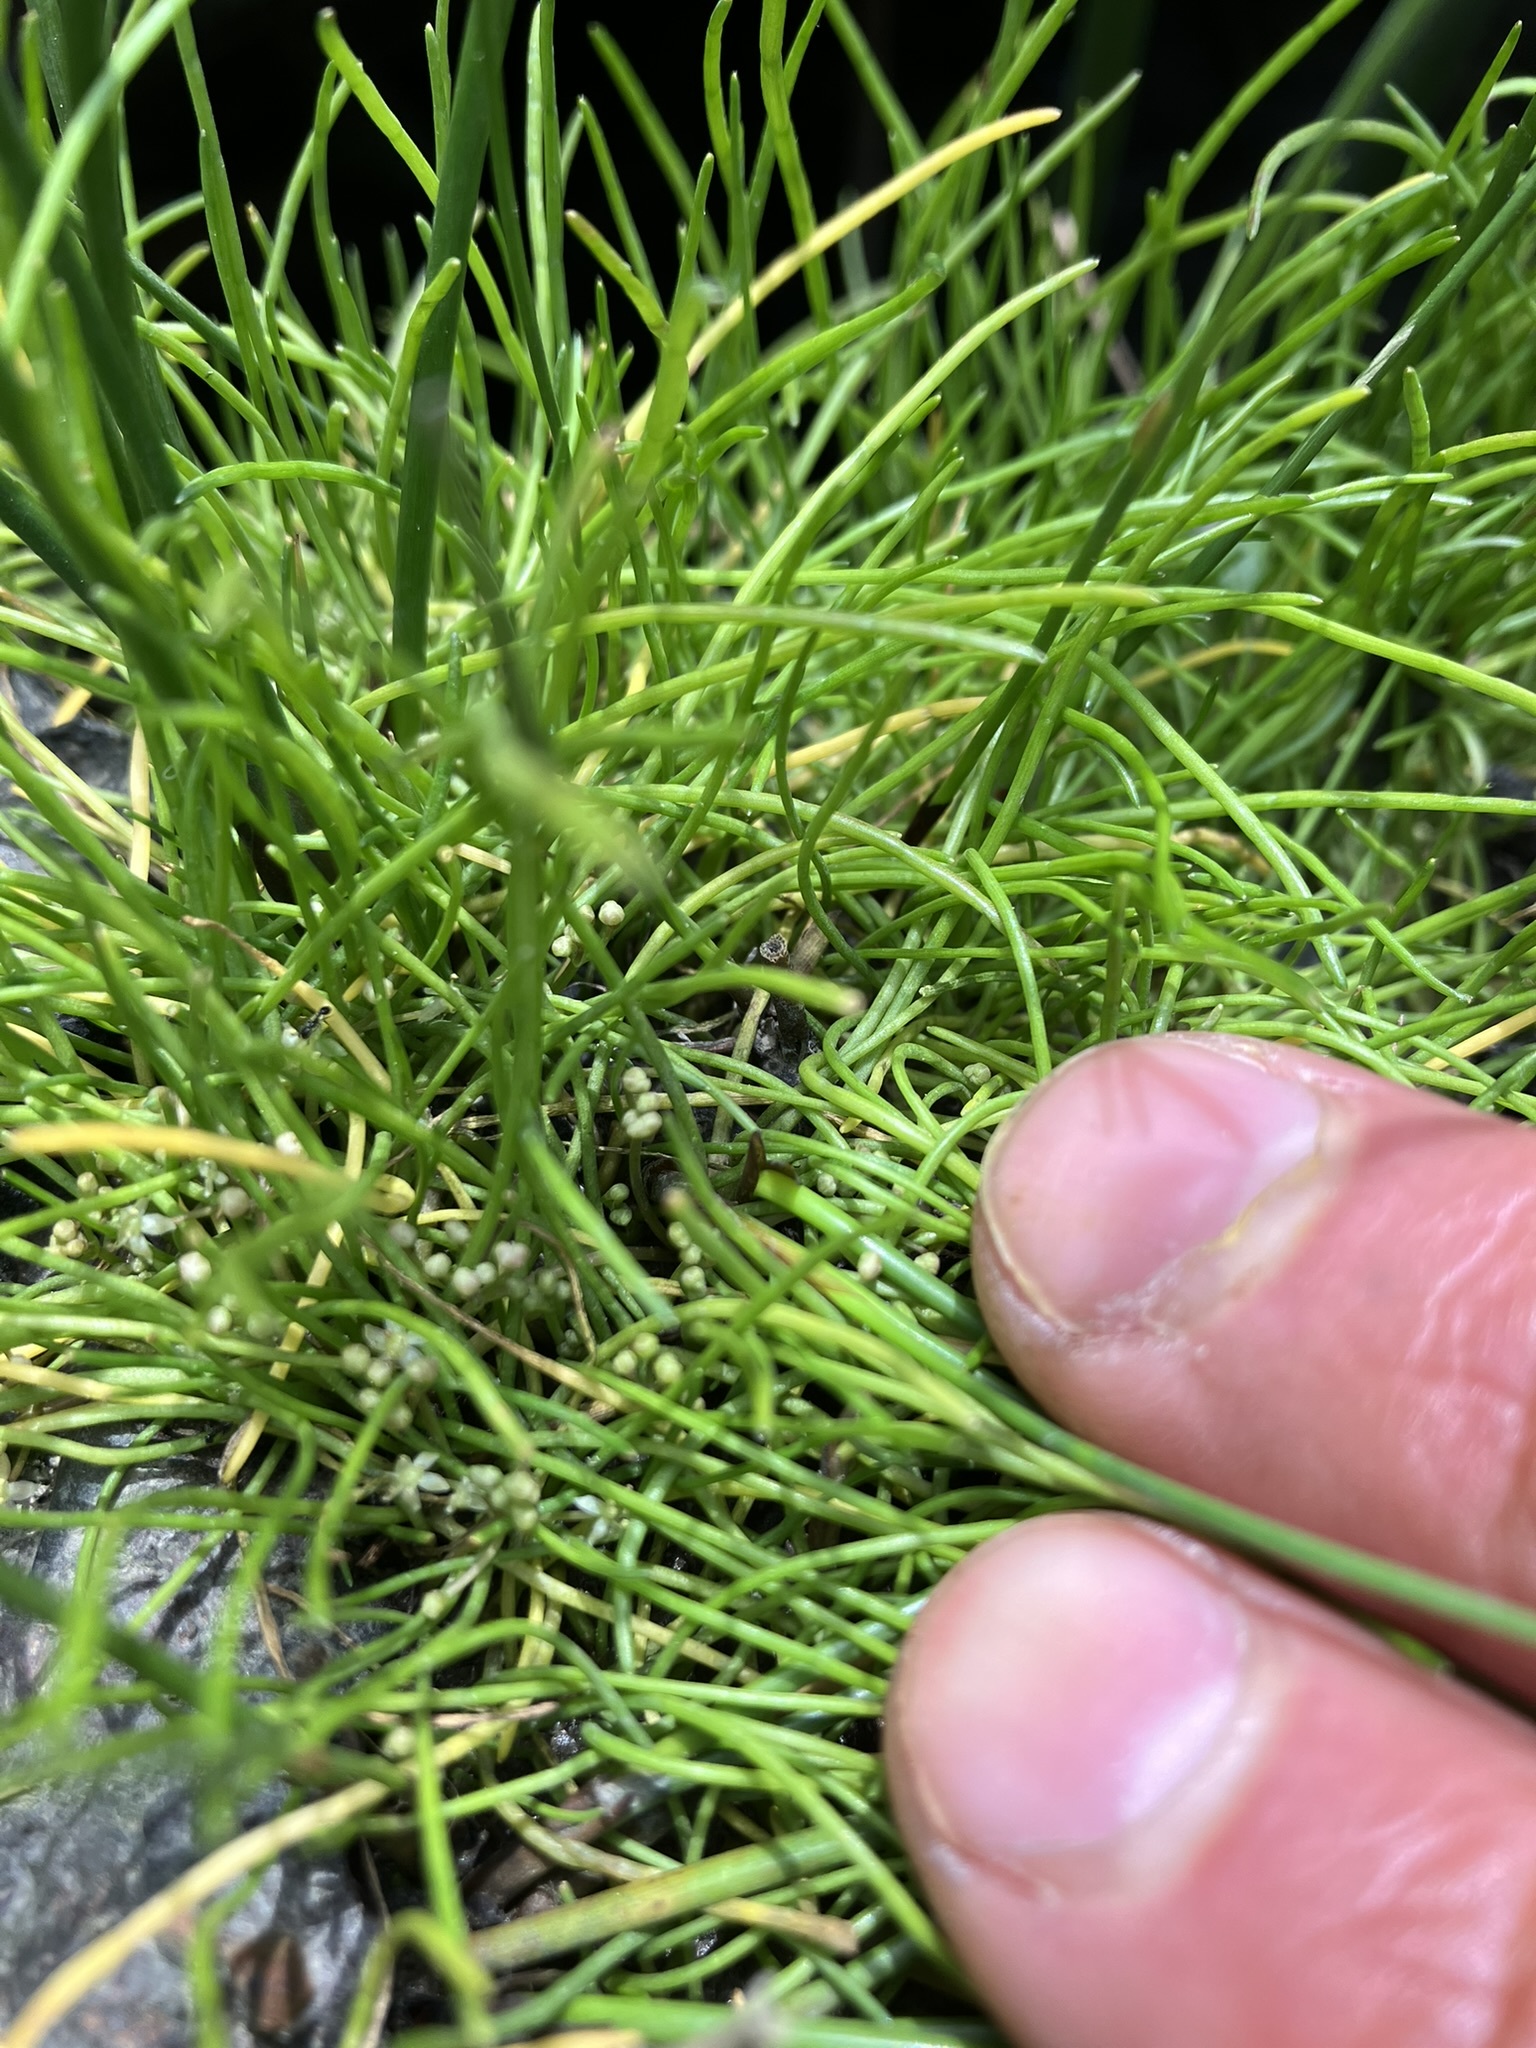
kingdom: Plantae
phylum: Tracheophyta
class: Magnoliopsida
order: Apiales
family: Apiaceae
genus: Lilaeopsis
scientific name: Lilaeopsis occidentalis
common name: Western grasswort
